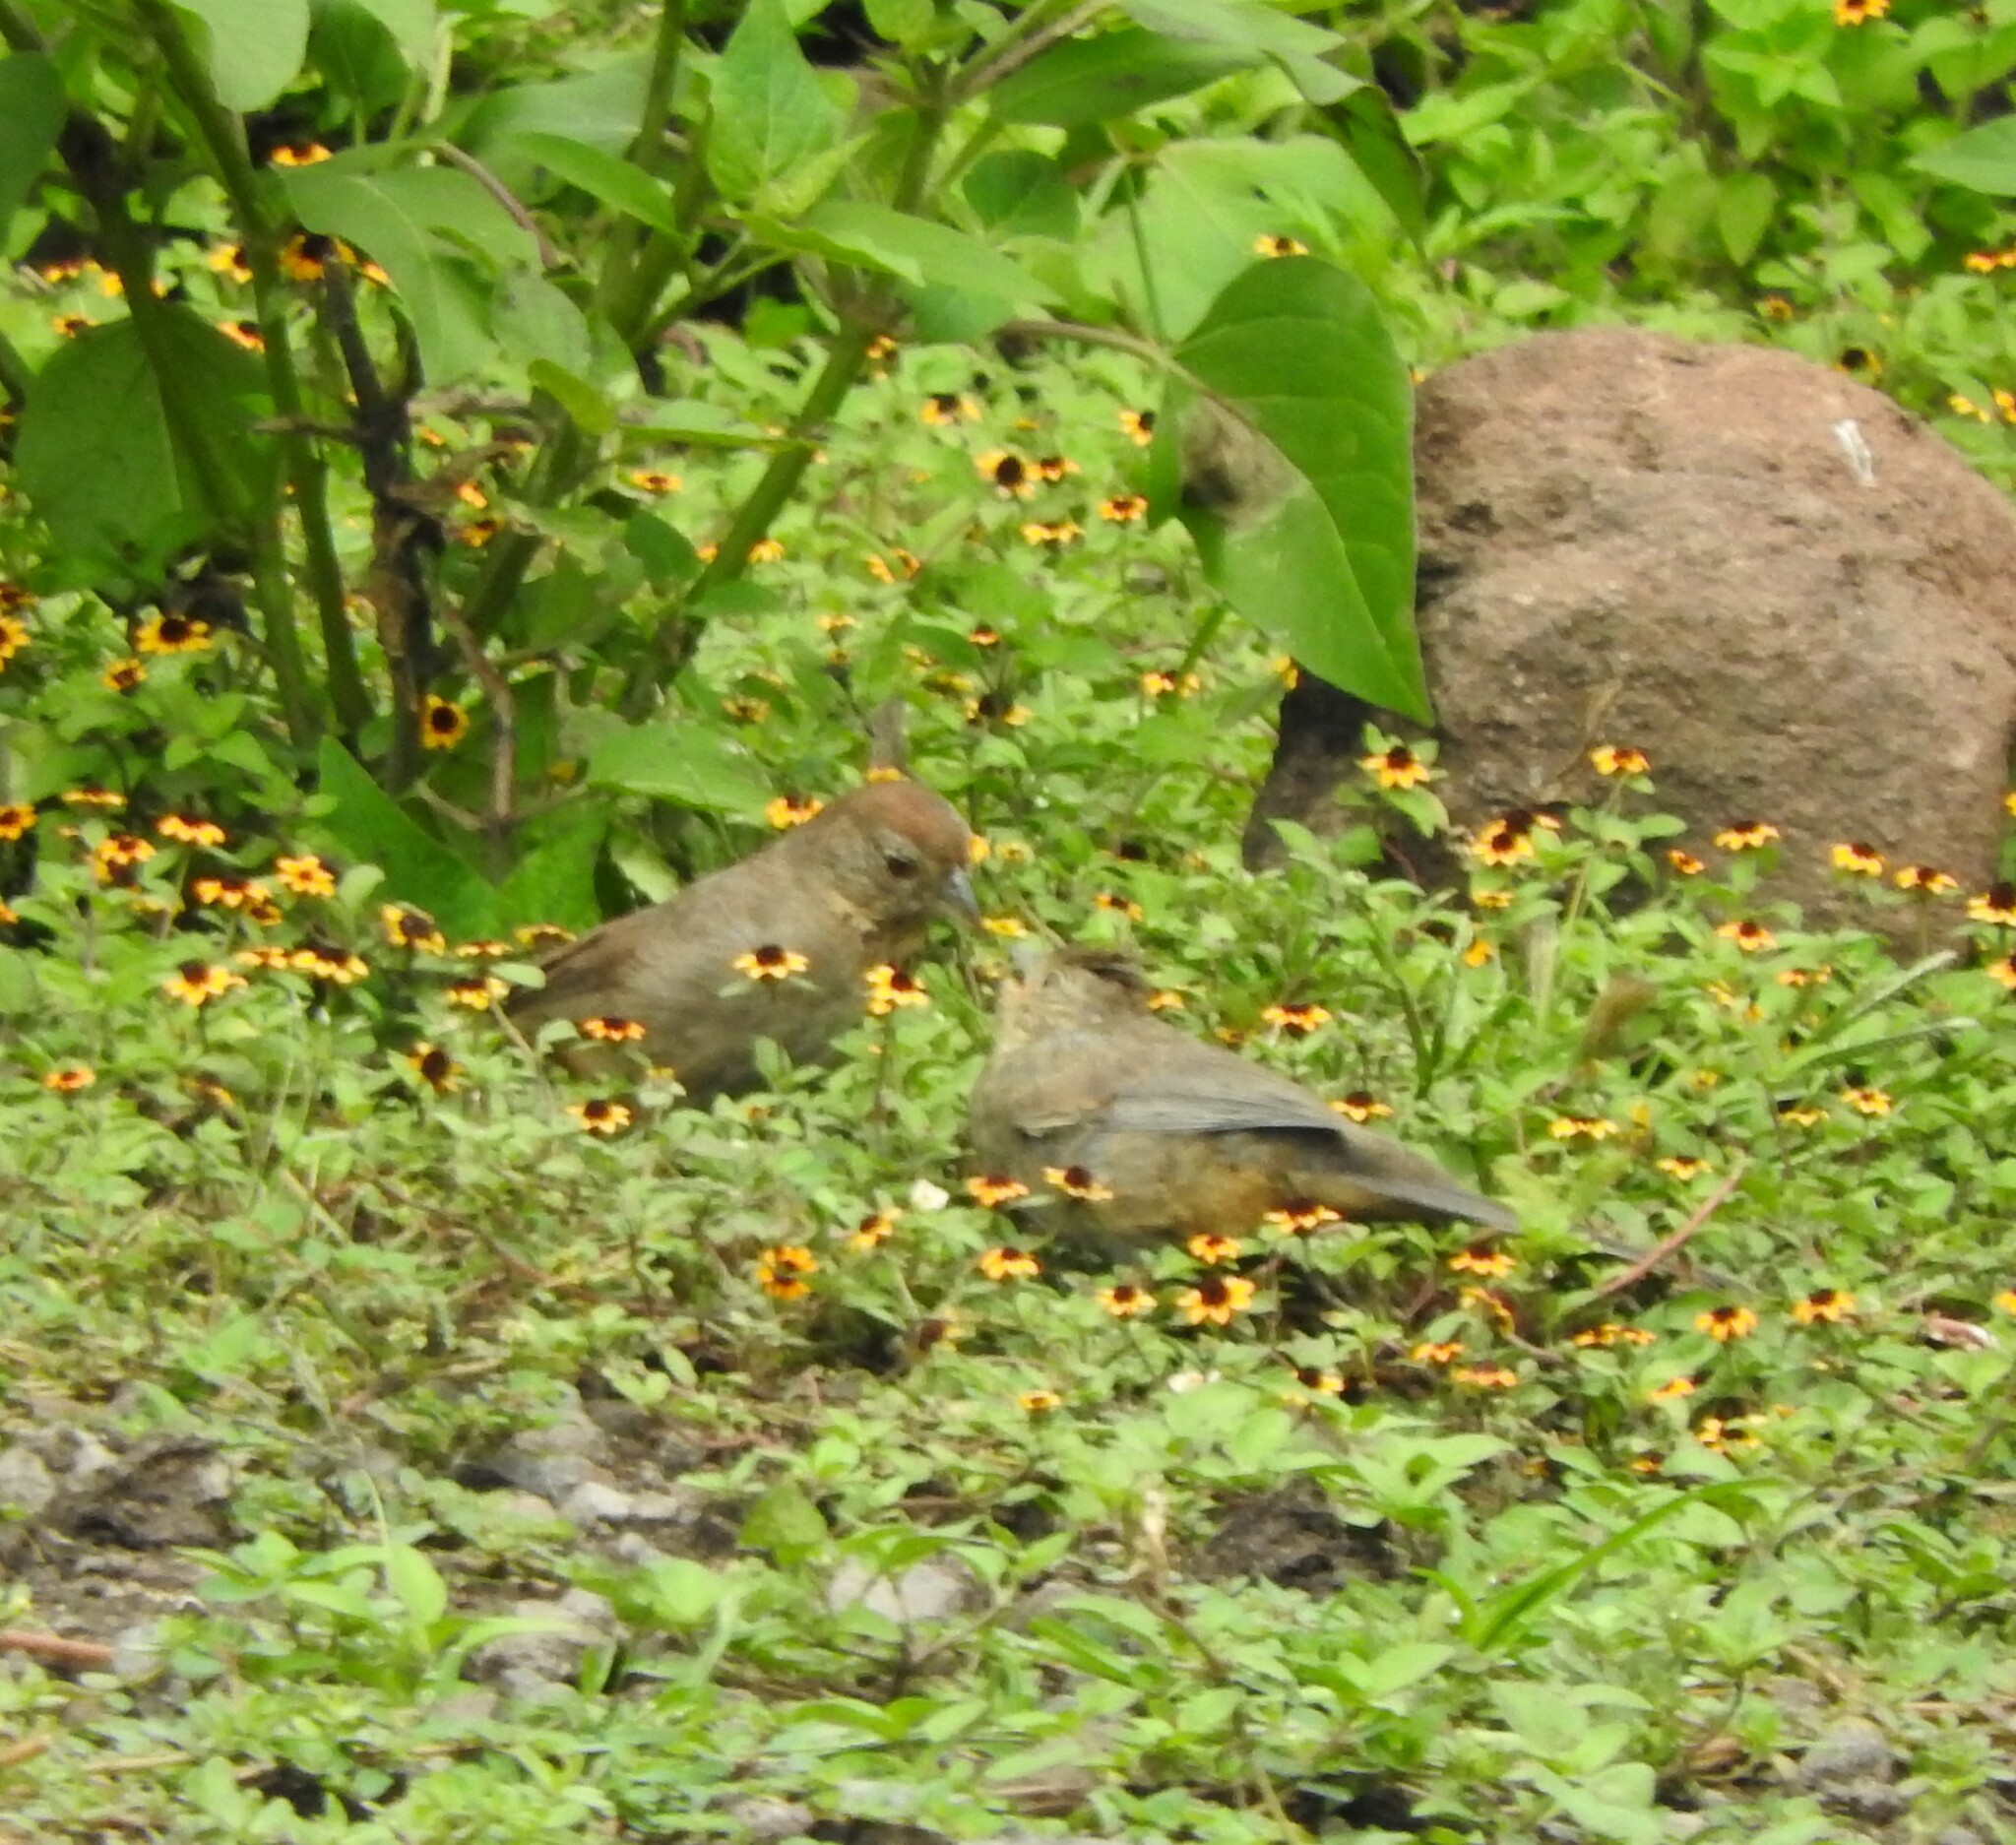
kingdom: Animalia
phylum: Chordata
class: Aves
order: Passeriformes
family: Passerellidae
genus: Melozone
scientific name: Melozone fusca
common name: Canyon towhee
